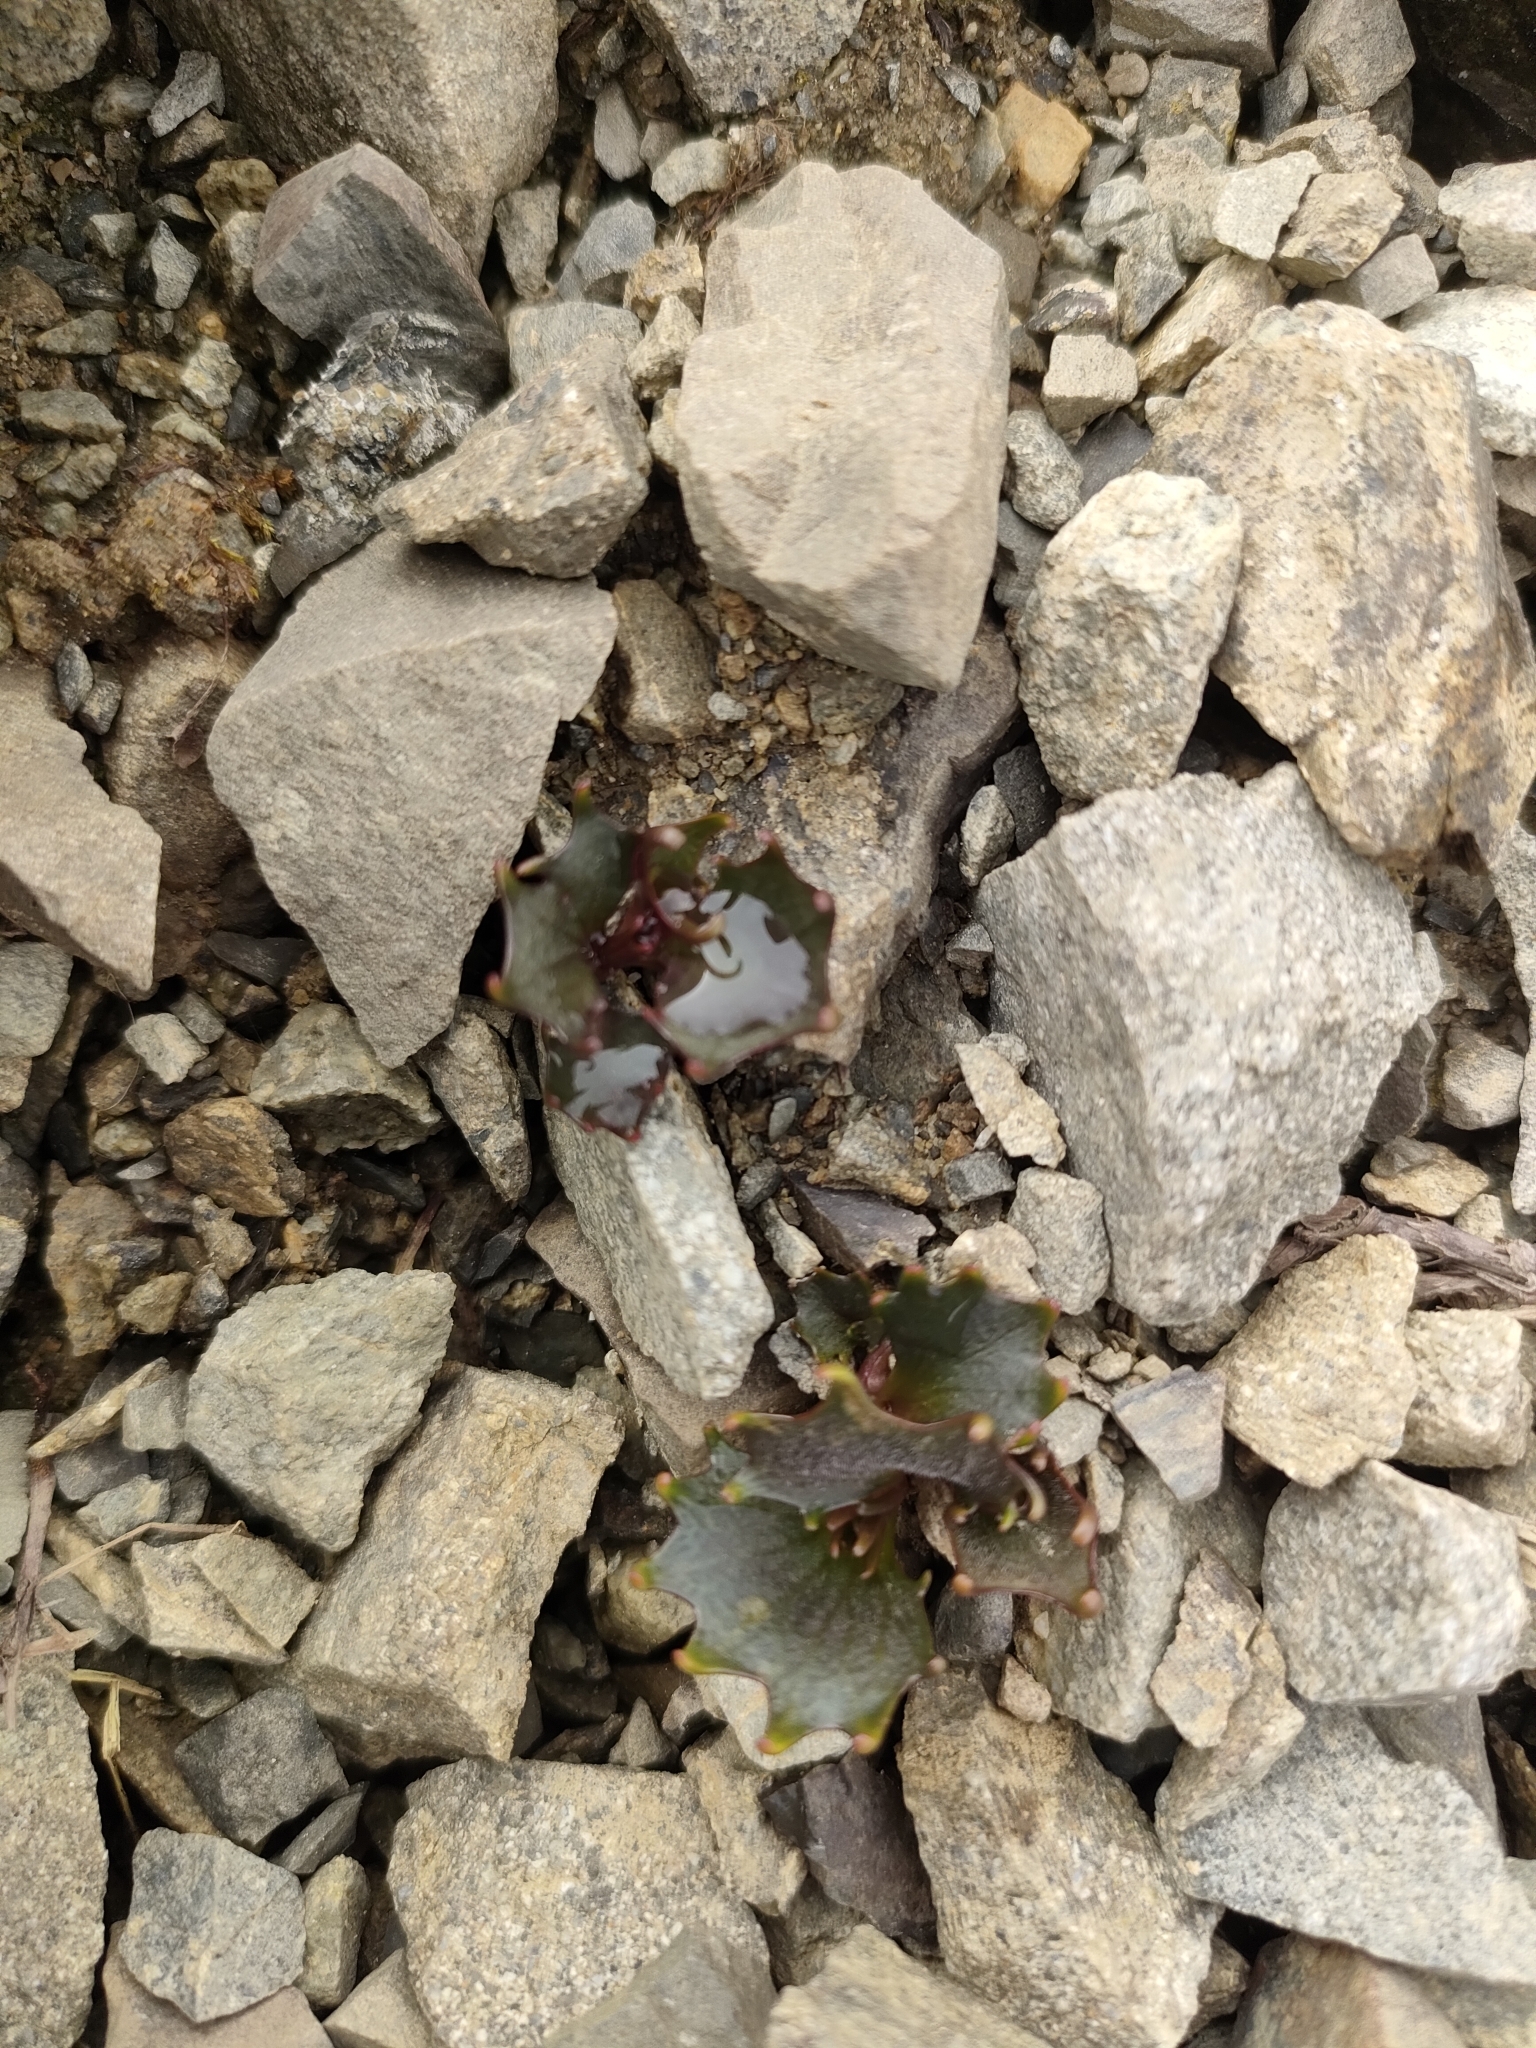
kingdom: Plantae
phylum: Tracheophyta
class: Magnoliopsida
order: Asterales
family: Campanulaceae
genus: Lobelia
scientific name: Lobelia roughii
